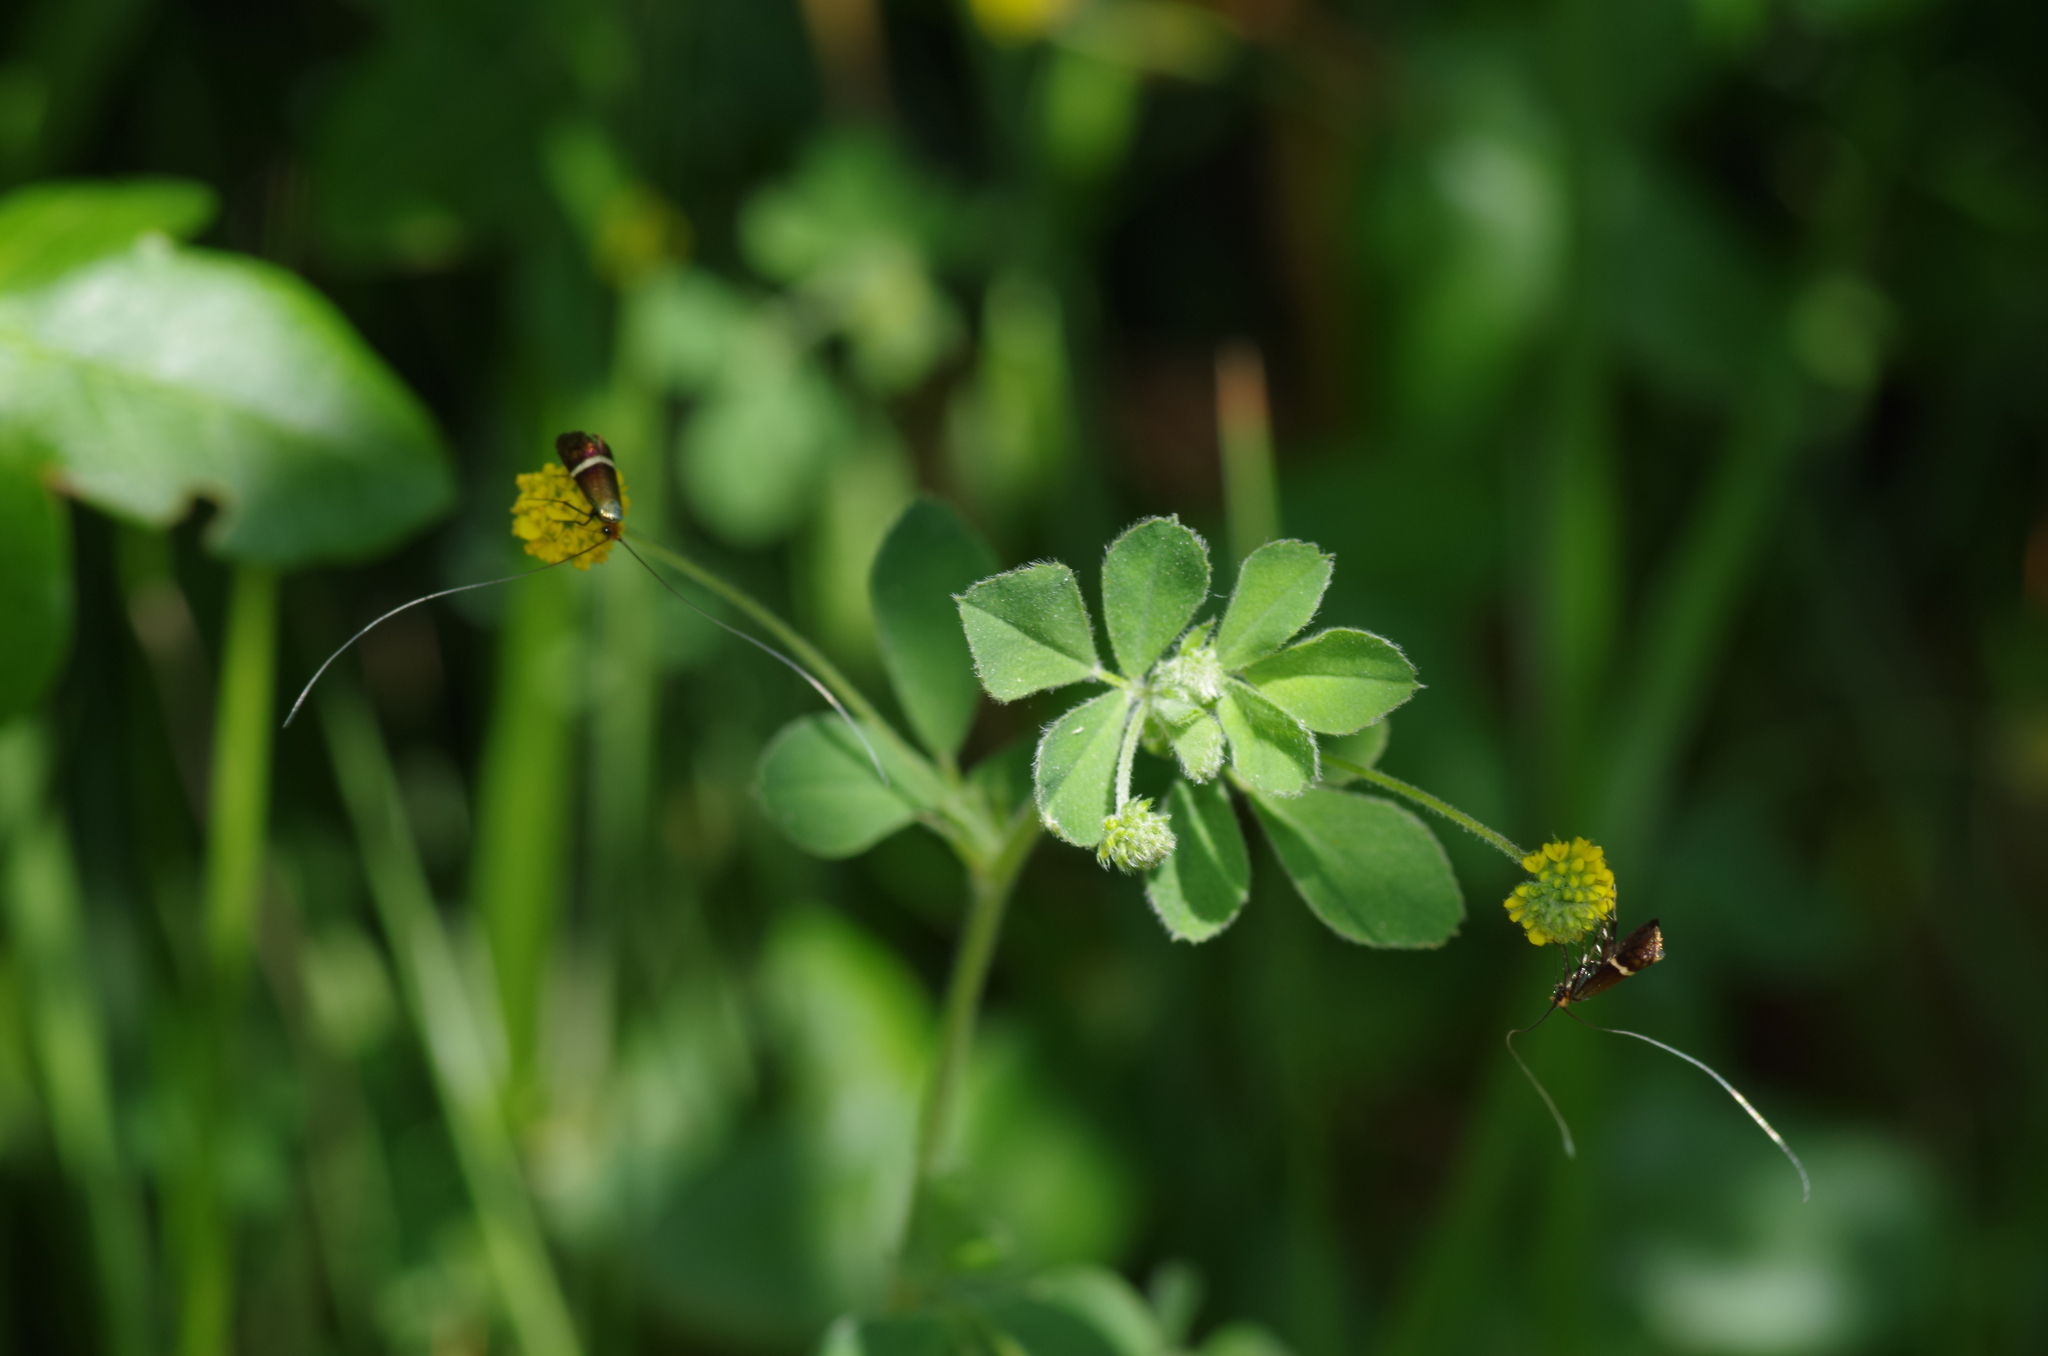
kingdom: Animalia
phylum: Arthropoda
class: Insecta
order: Lepidoptera
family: Adelidae
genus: Adela
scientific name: Adela australis
